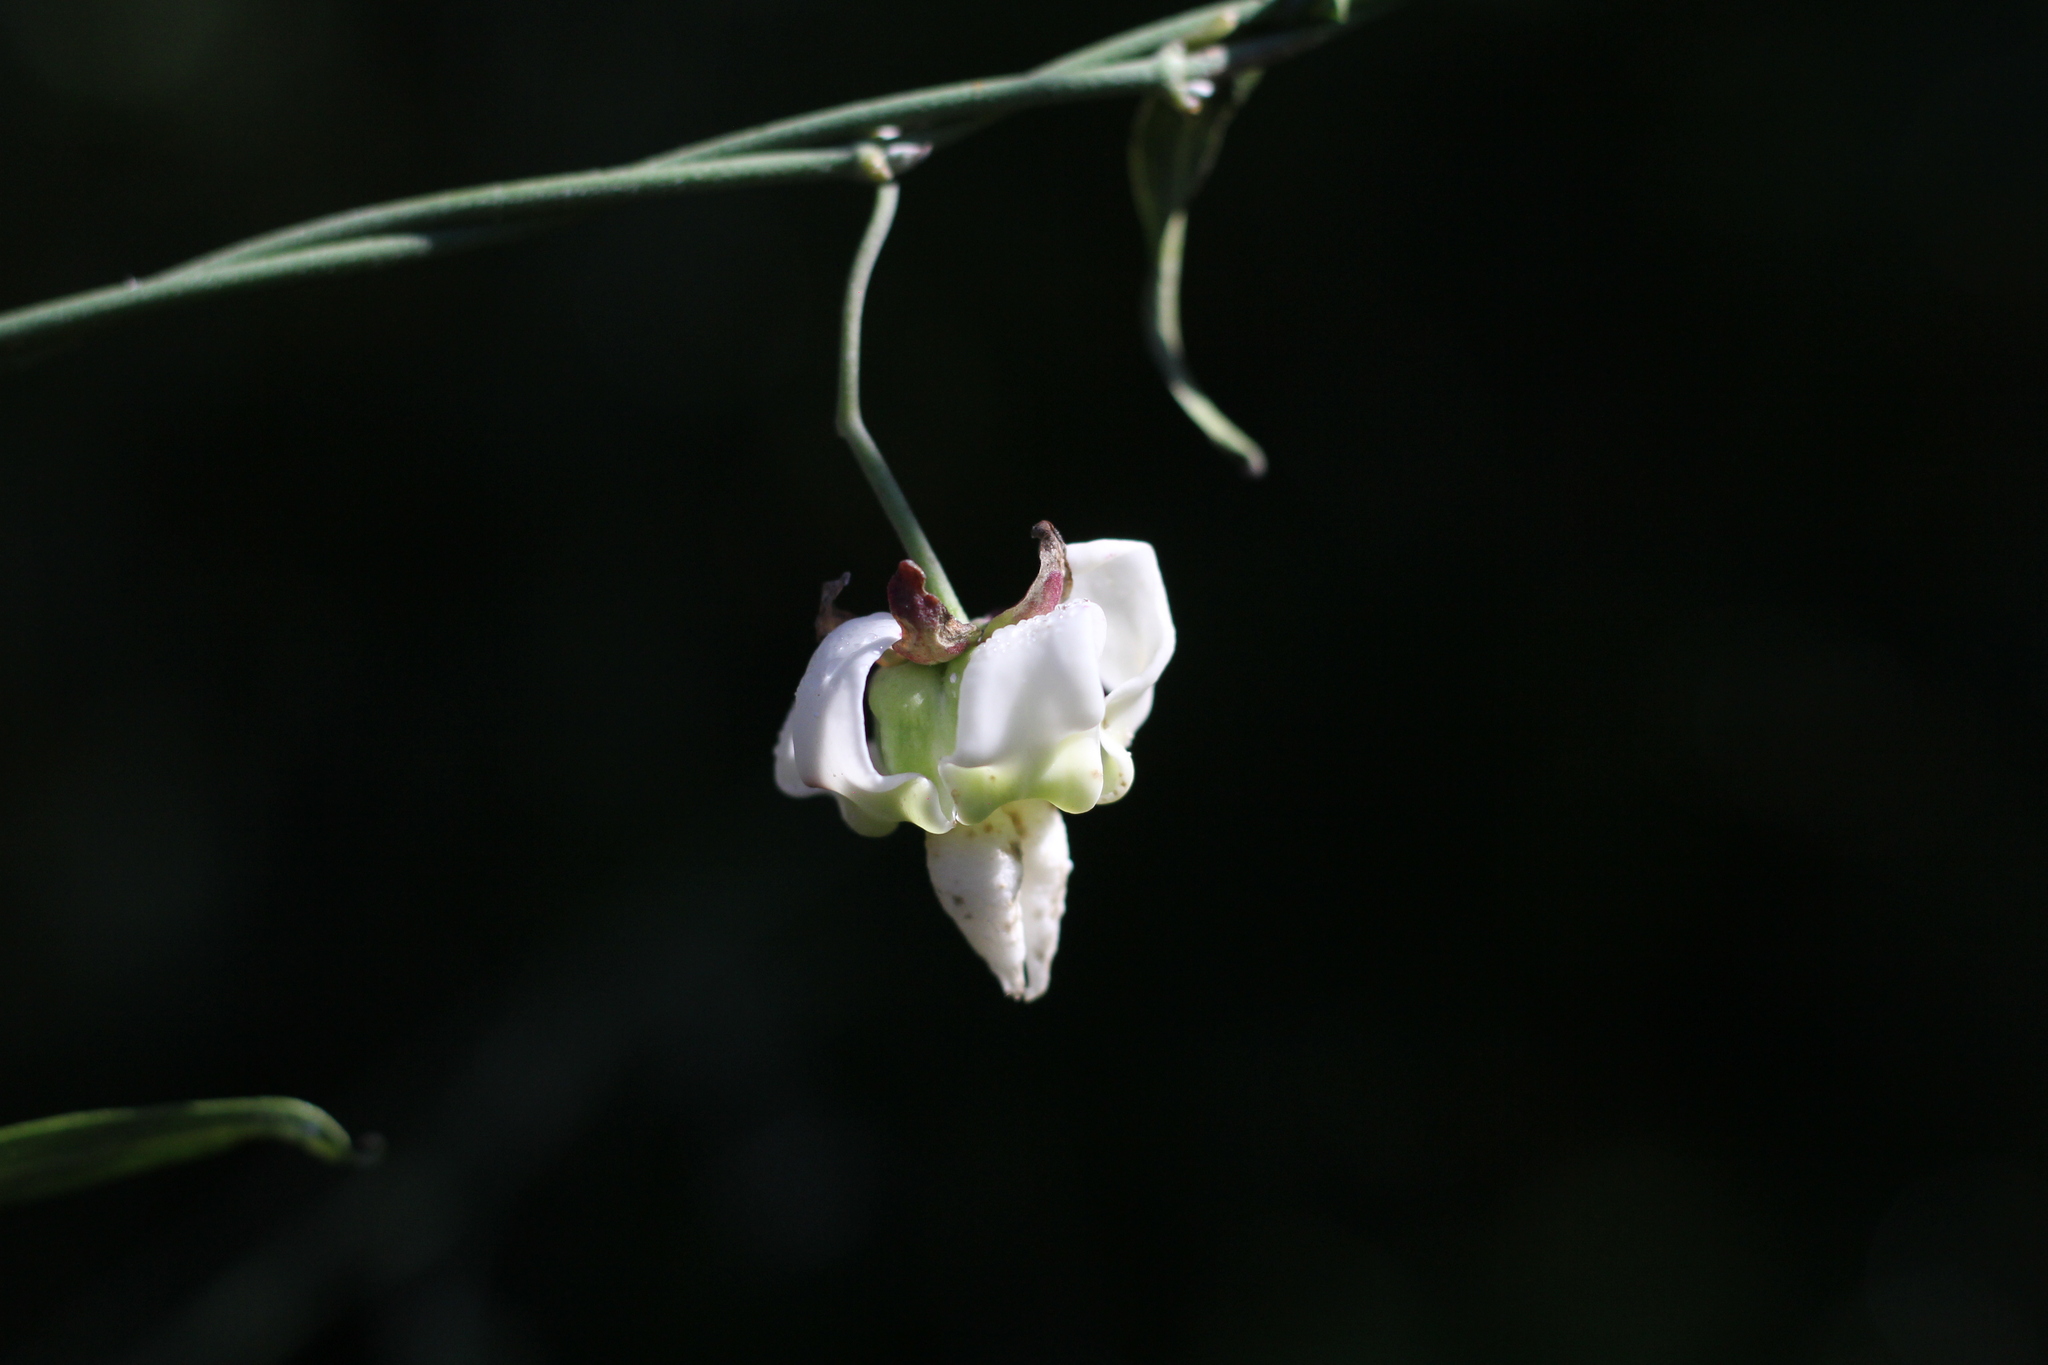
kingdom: Plantae
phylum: Tracheophyta
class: Magnoliopsida
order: Gentianales
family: Apocynaceae
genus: Araujia
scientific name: Araujia angustifolia
